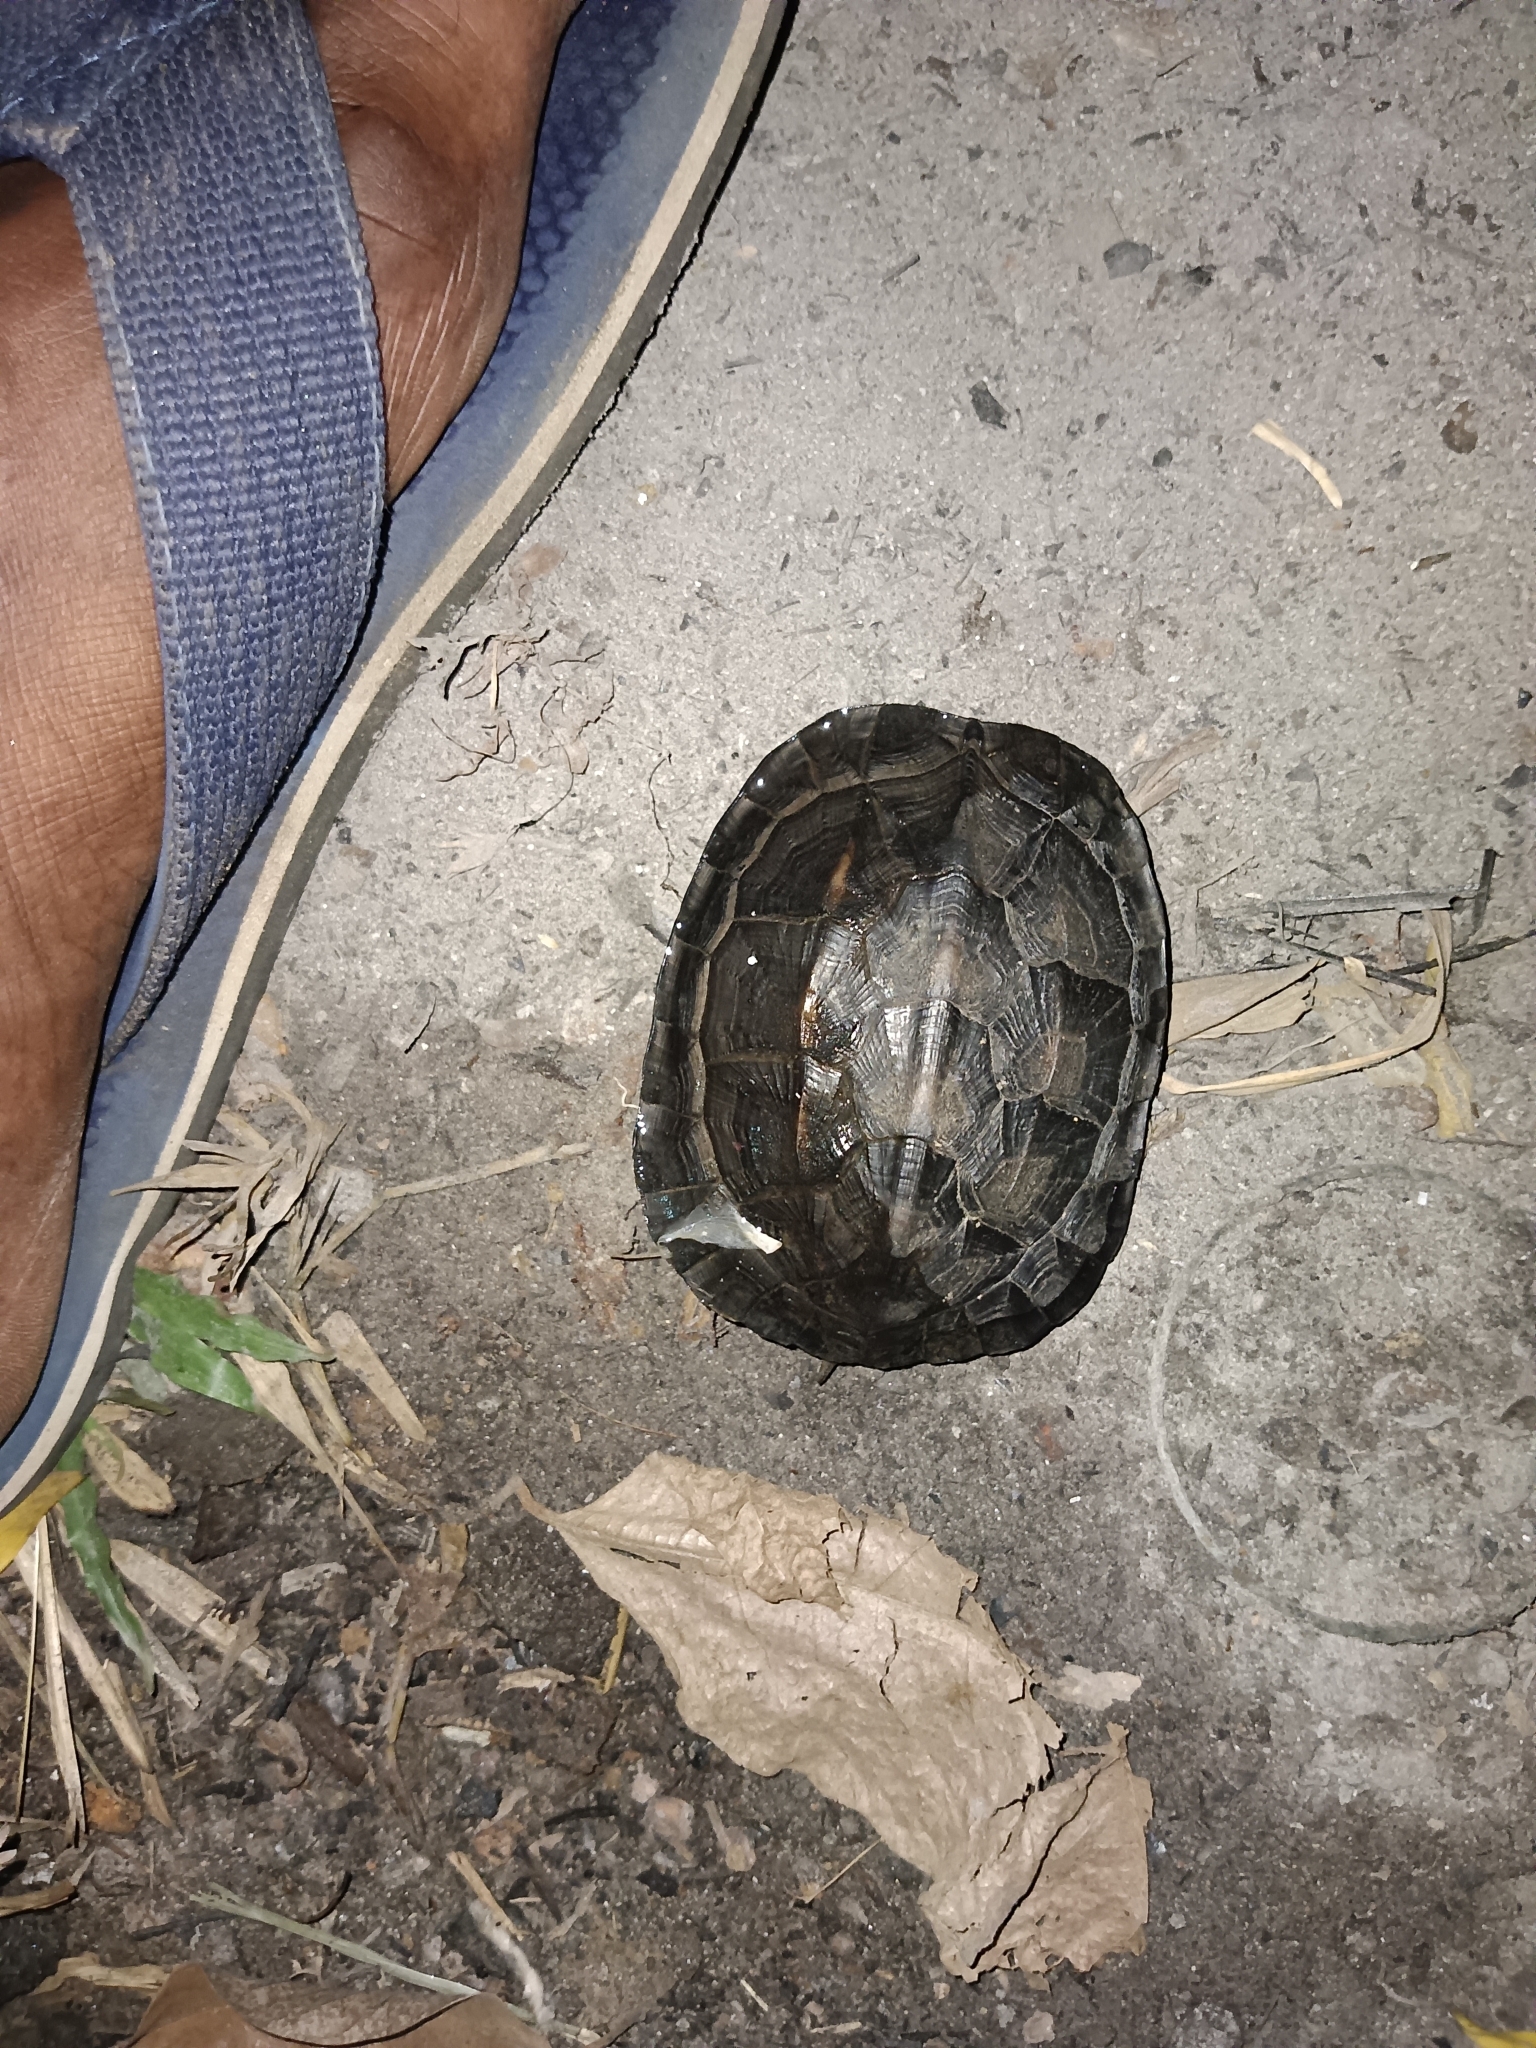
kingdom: Animalia
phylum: Chordata
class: Testudines
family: Geoemydidae
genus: Melanochelys
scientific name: Melanochelys trijuga
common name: Indian black turtle
